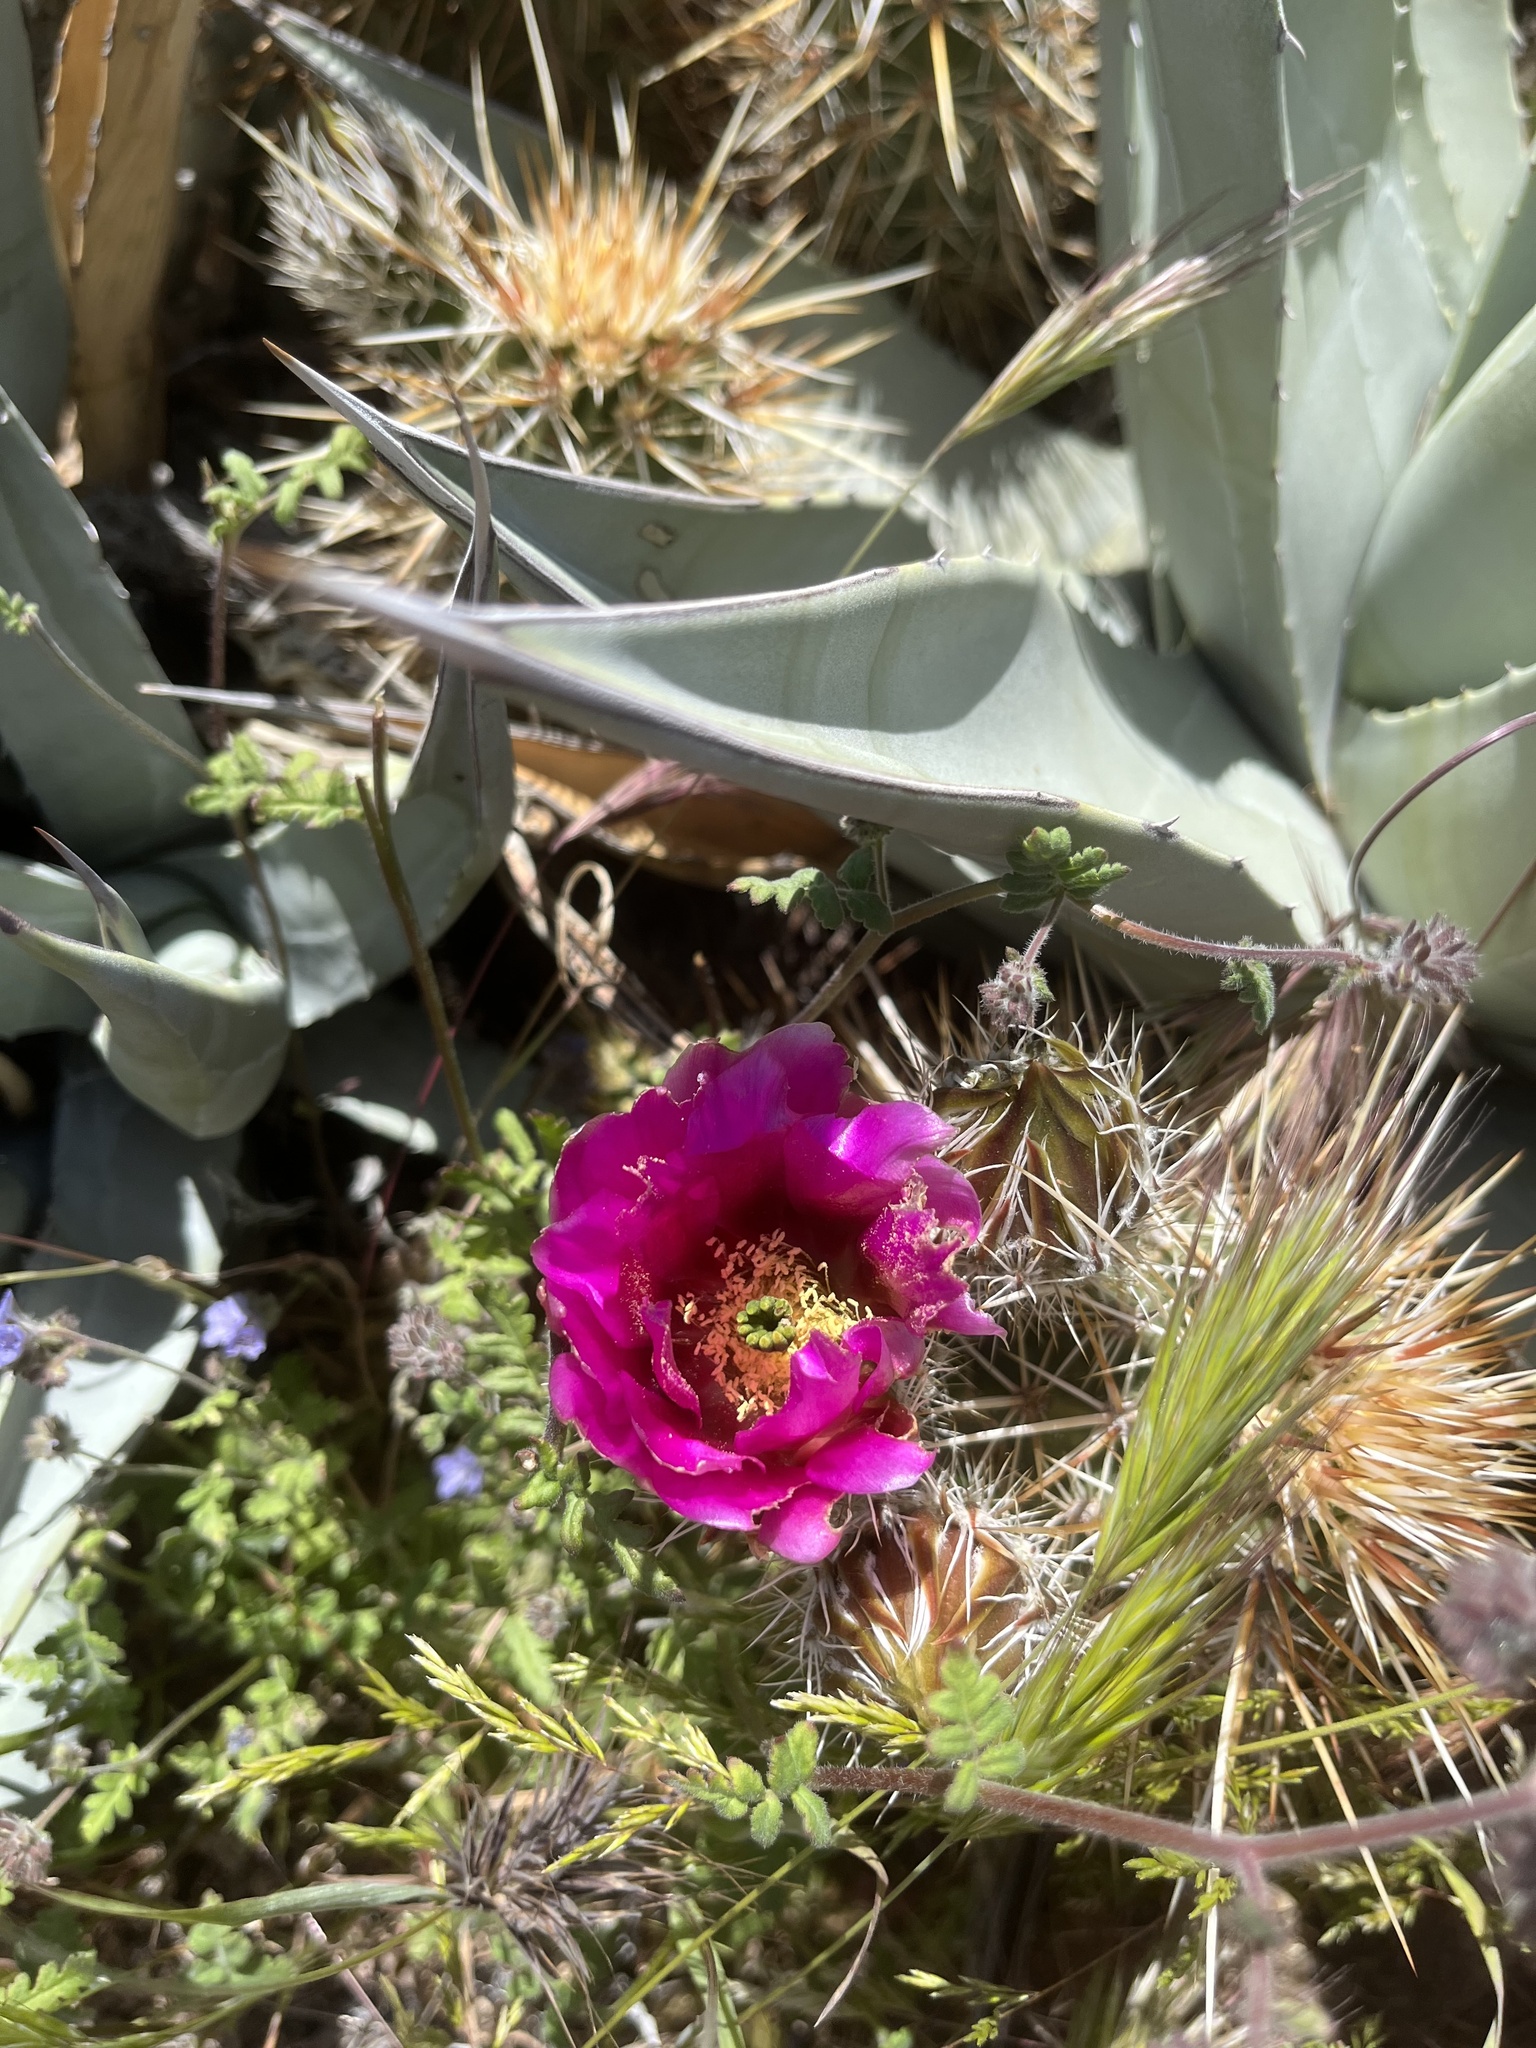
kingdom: Plantae
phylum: Tracheophyta
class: Magnoliopsida
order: Caryophyllales
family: Cactaceae
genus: Echinocereus
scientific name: Echinocereus engelmannii
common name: Engelmann's hedgehog cactus
